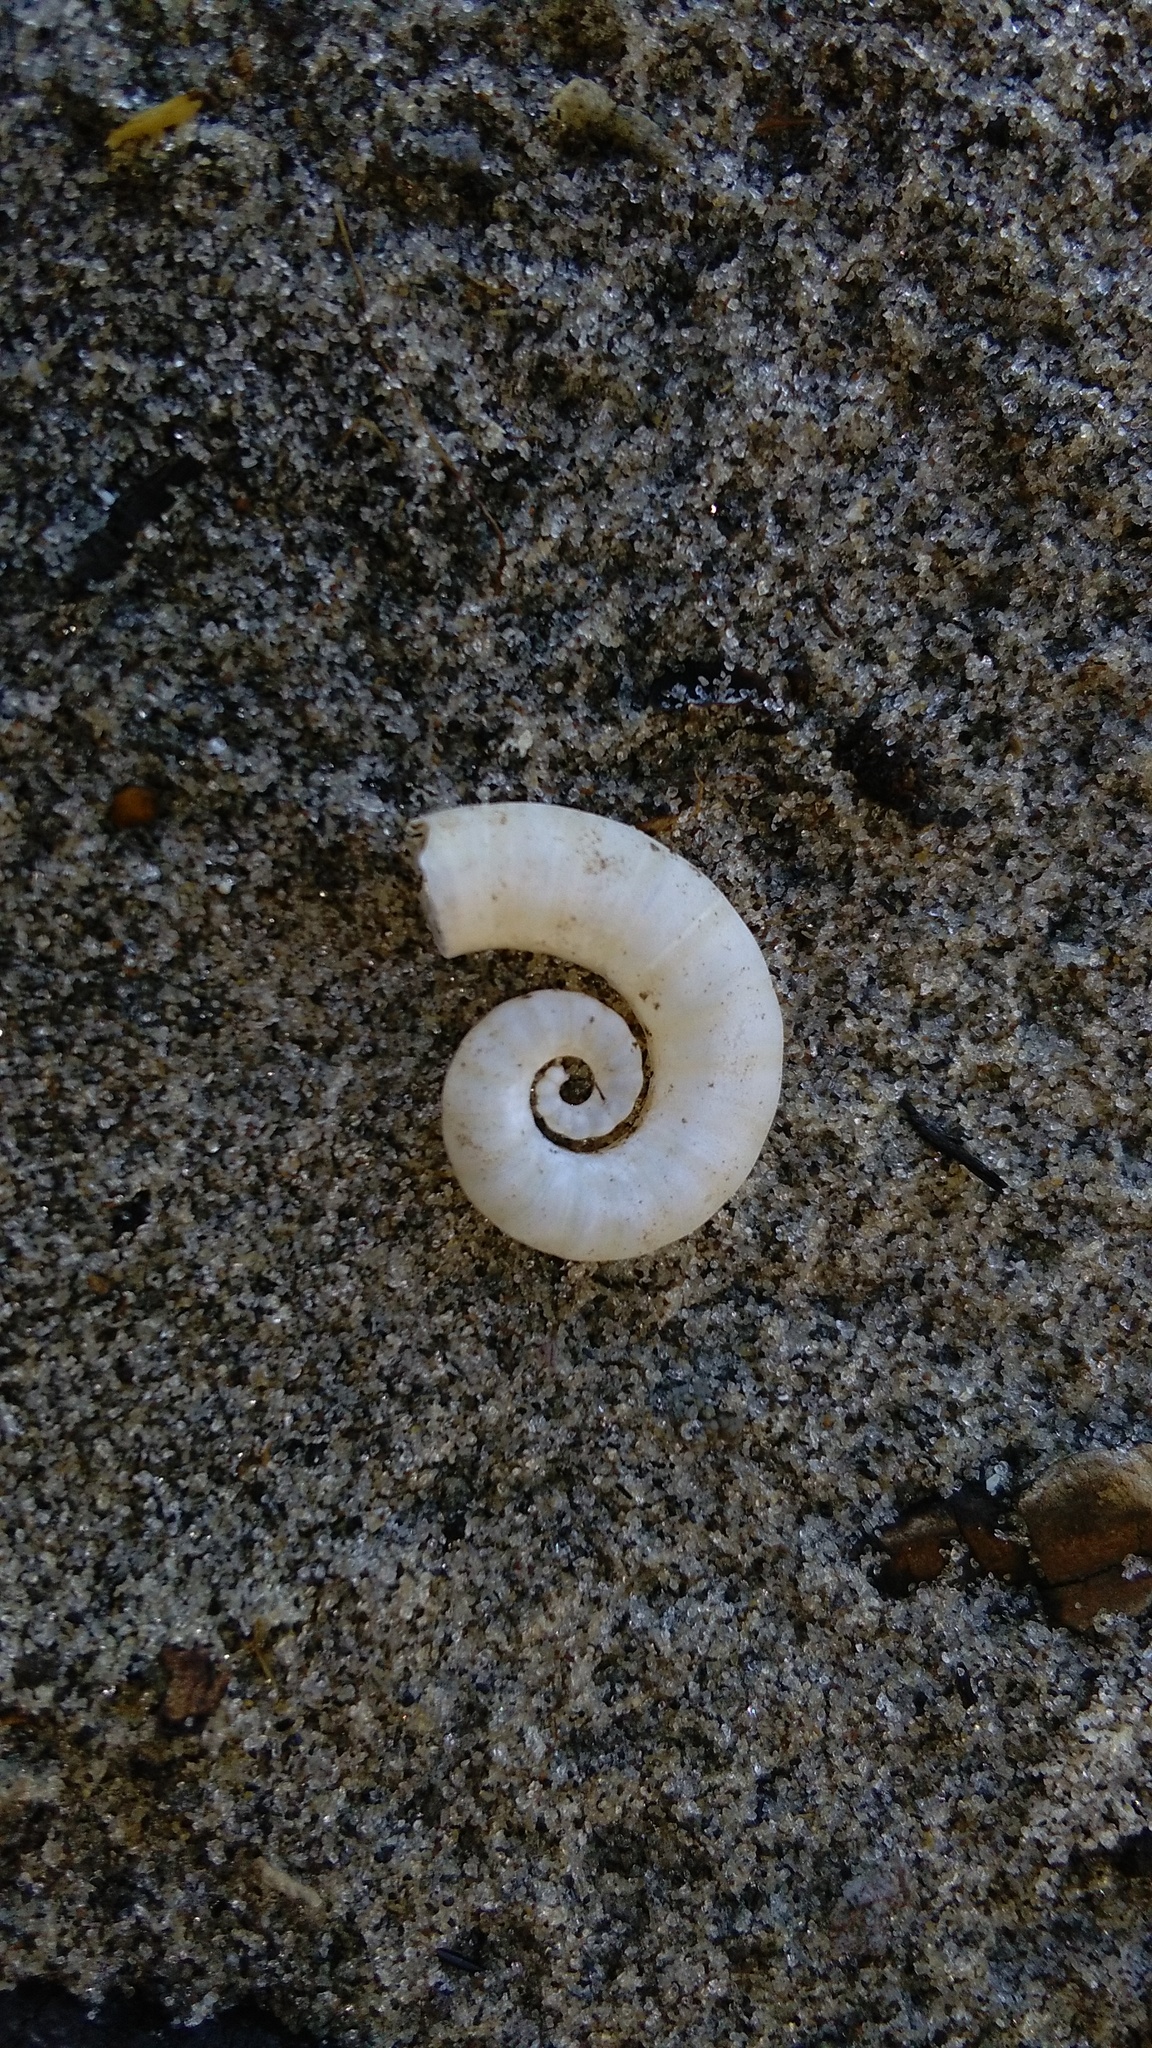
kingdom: Animalia
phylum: Mollusca
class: Cephalopoda
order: Spirulida
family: Spirulidae
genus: Spirula
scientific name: Spirula spirula
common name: Ram's horn squid
